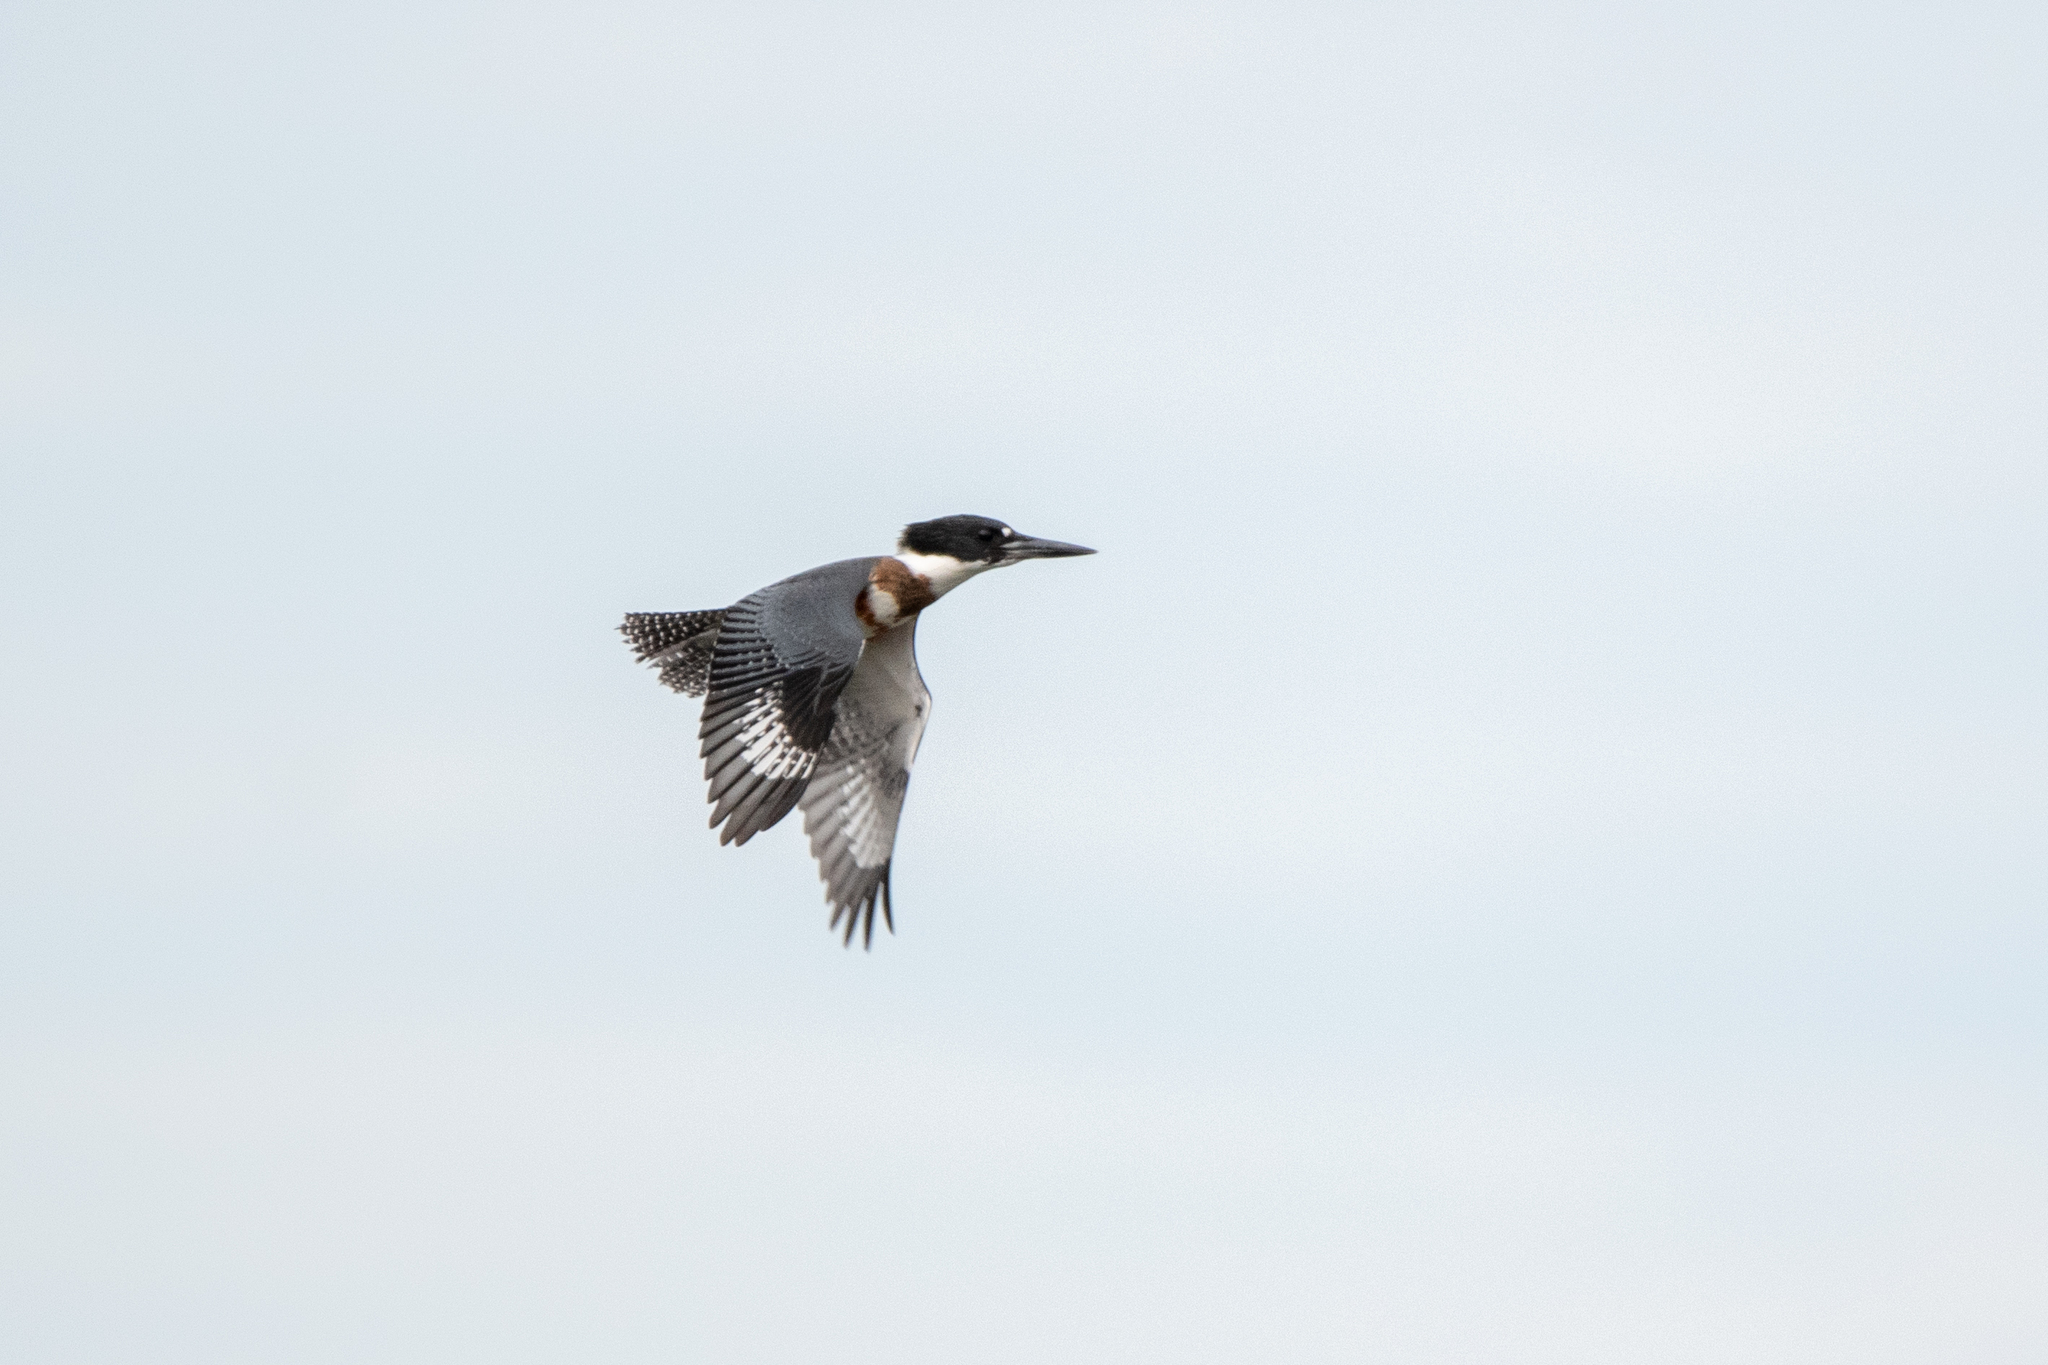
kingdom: Animalia
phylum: Chordata
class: Aves
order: Coraciiformes
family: Alcedinidae
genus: Megaceryle
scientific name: Megaceryle alcyon
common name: Belted kingfisher
